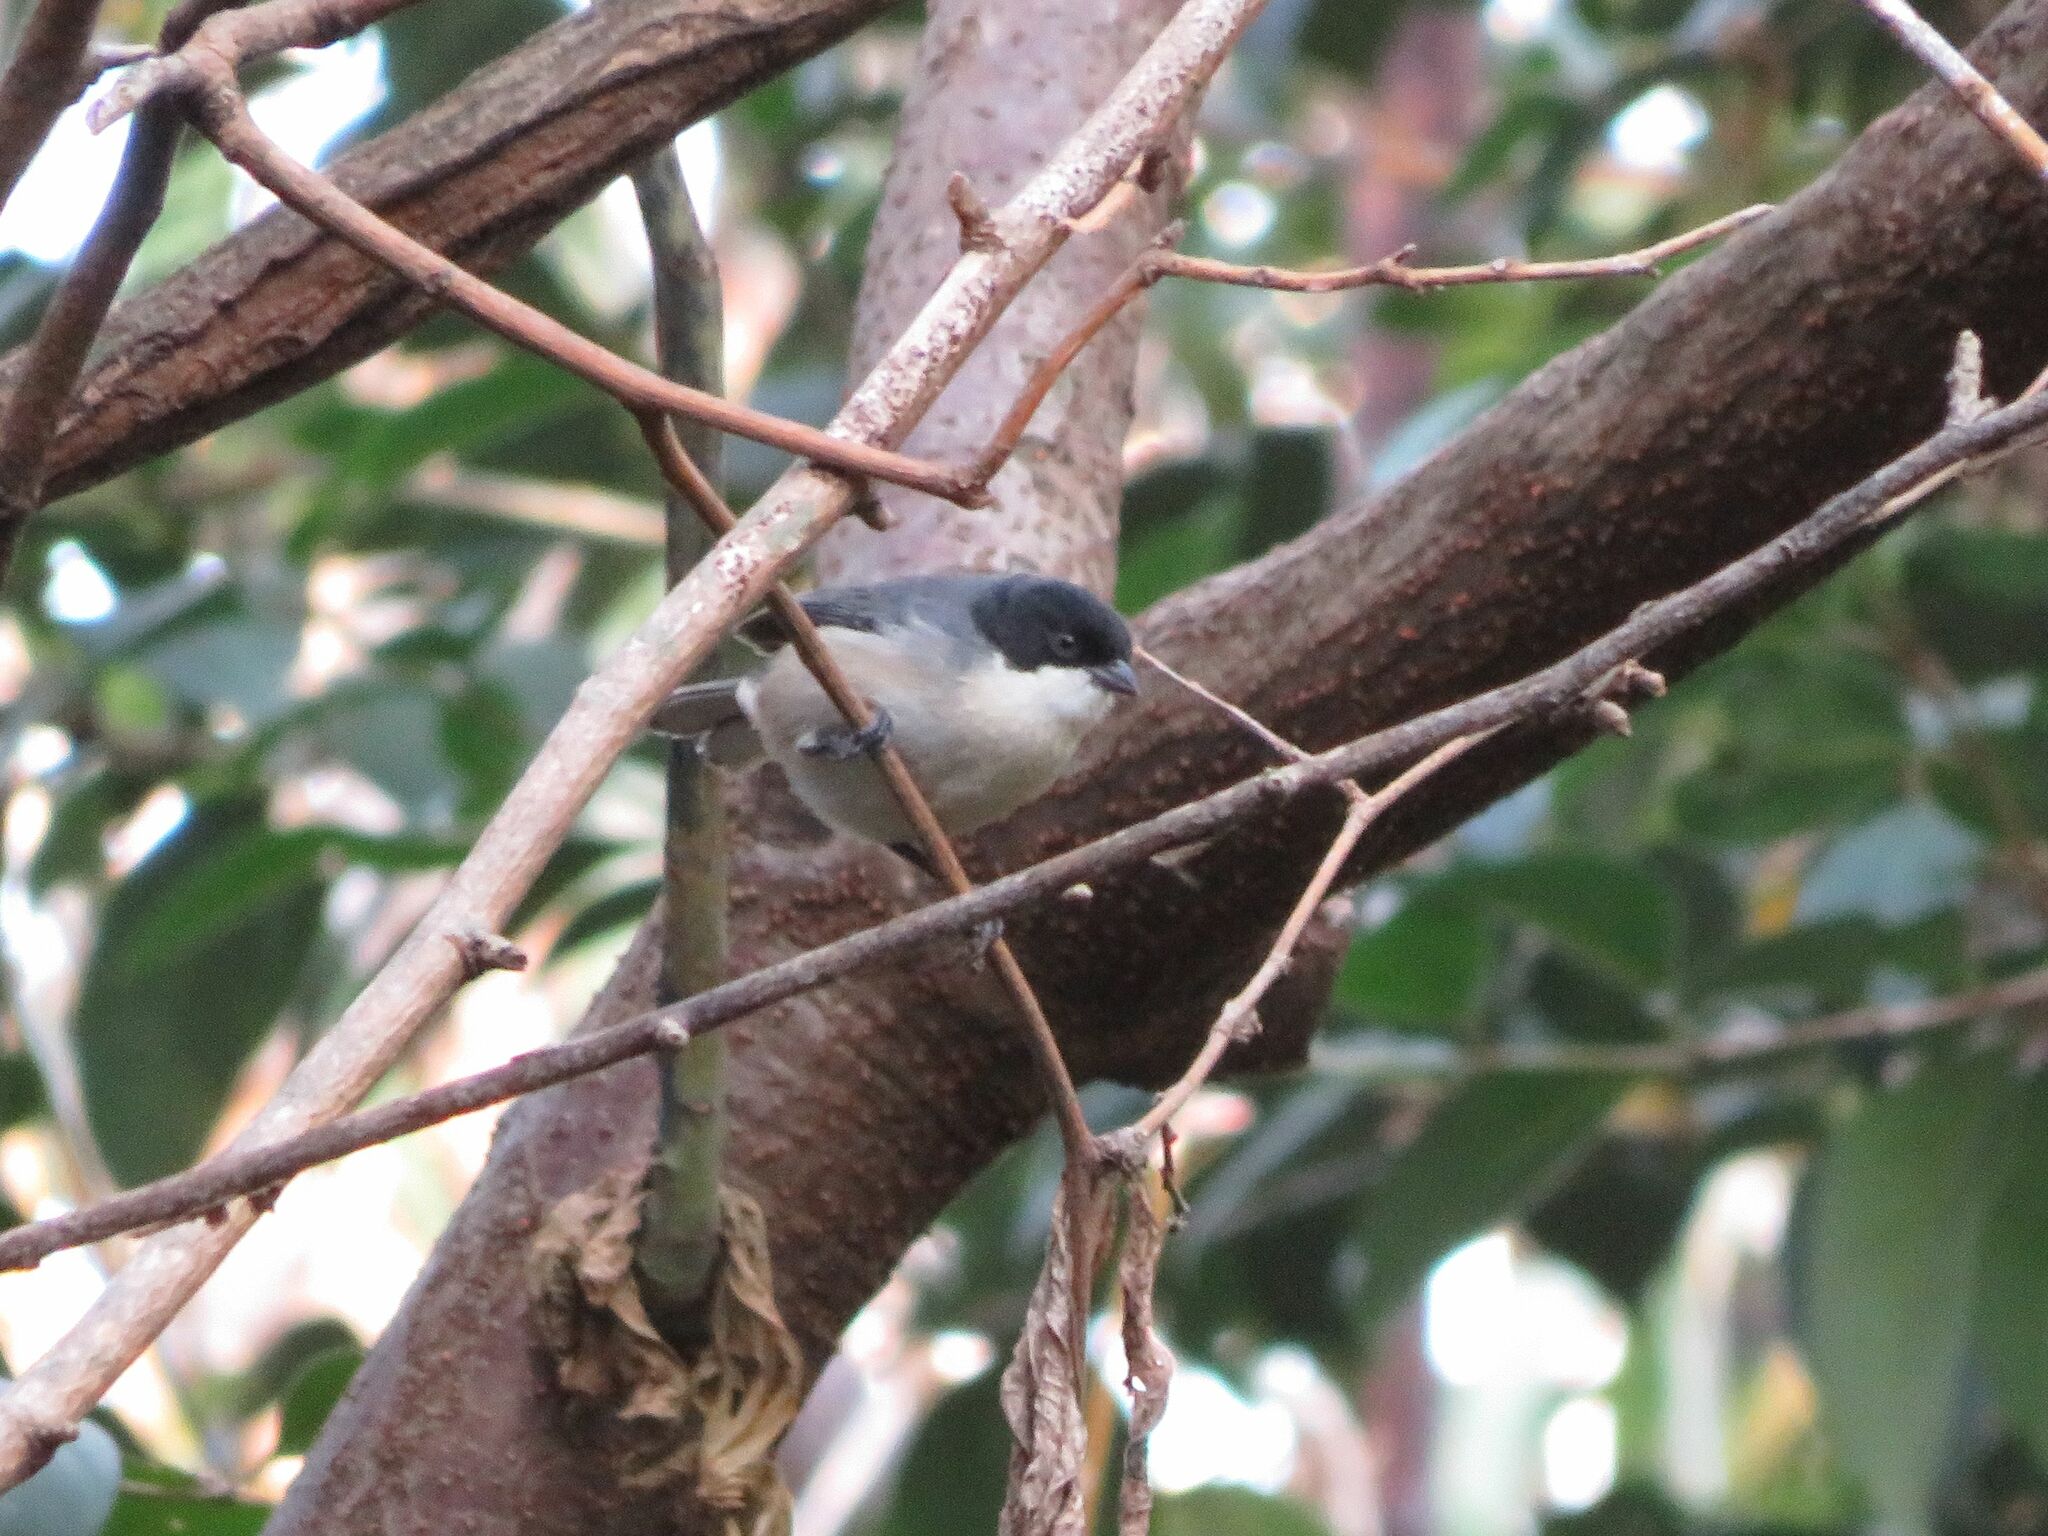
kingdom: Animalia
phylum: Chordata
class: Aves
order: Passeriformes
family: Thraupidae
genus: Microspingus
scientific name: Microspingus melanoleucus
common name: Black-capped warbling-finch
